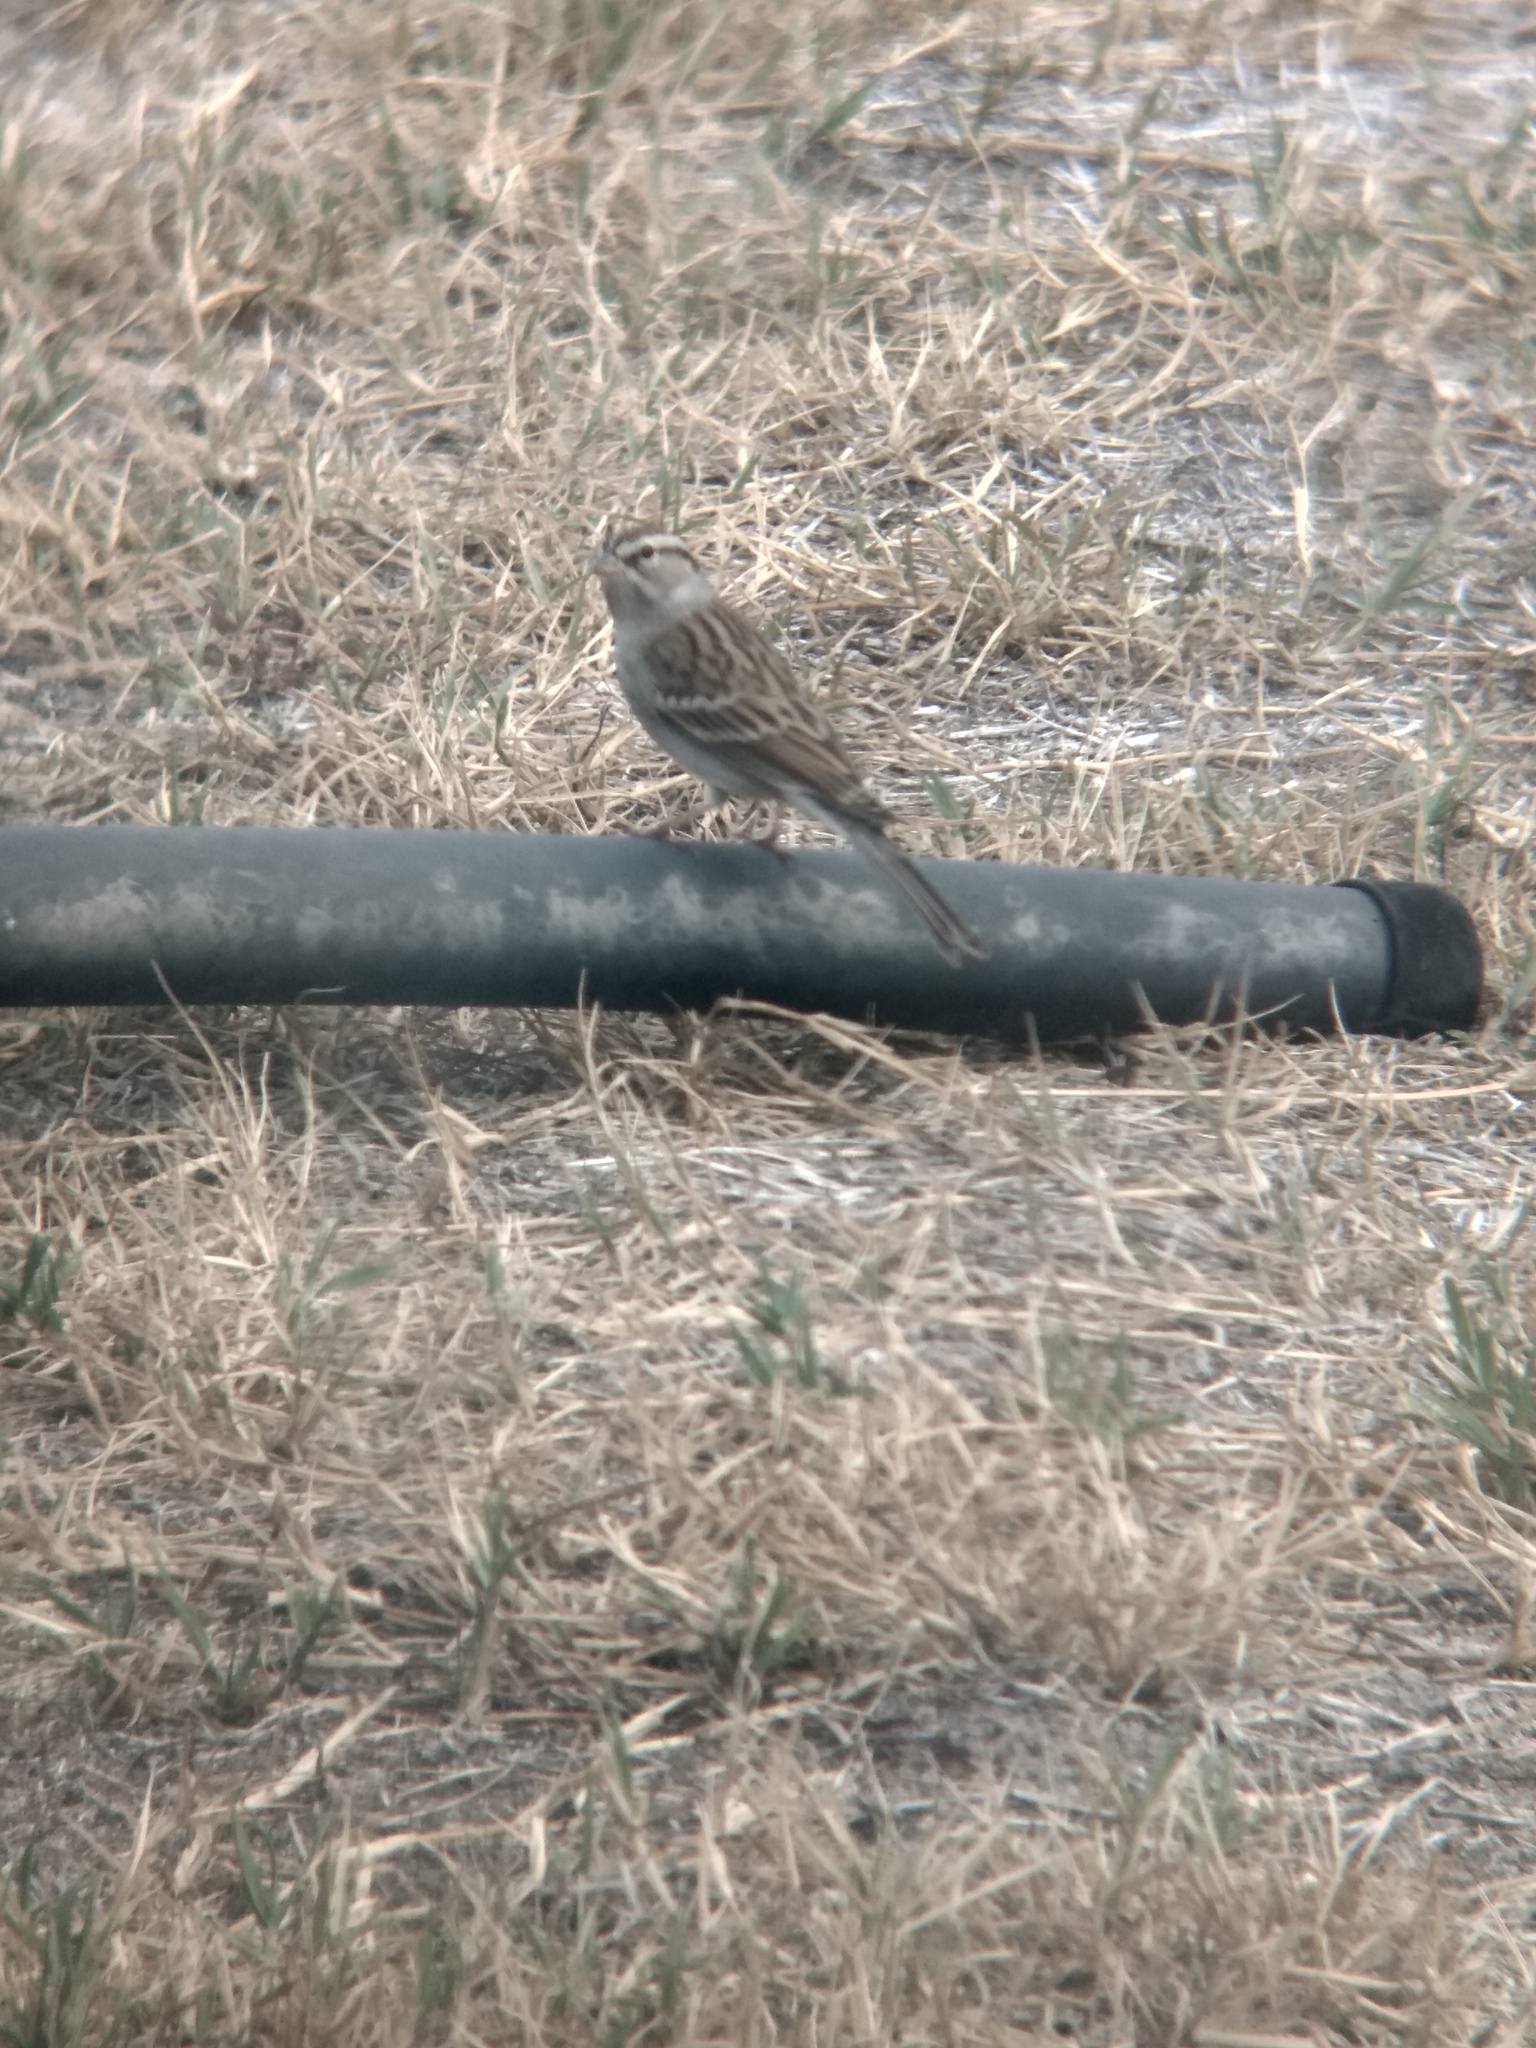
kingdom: Animalia
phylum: Chordata
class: Aves
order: Passeriformes
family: Passerellidae
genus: Spizella
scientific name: Spizella passerina
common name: Chipping sparrow
